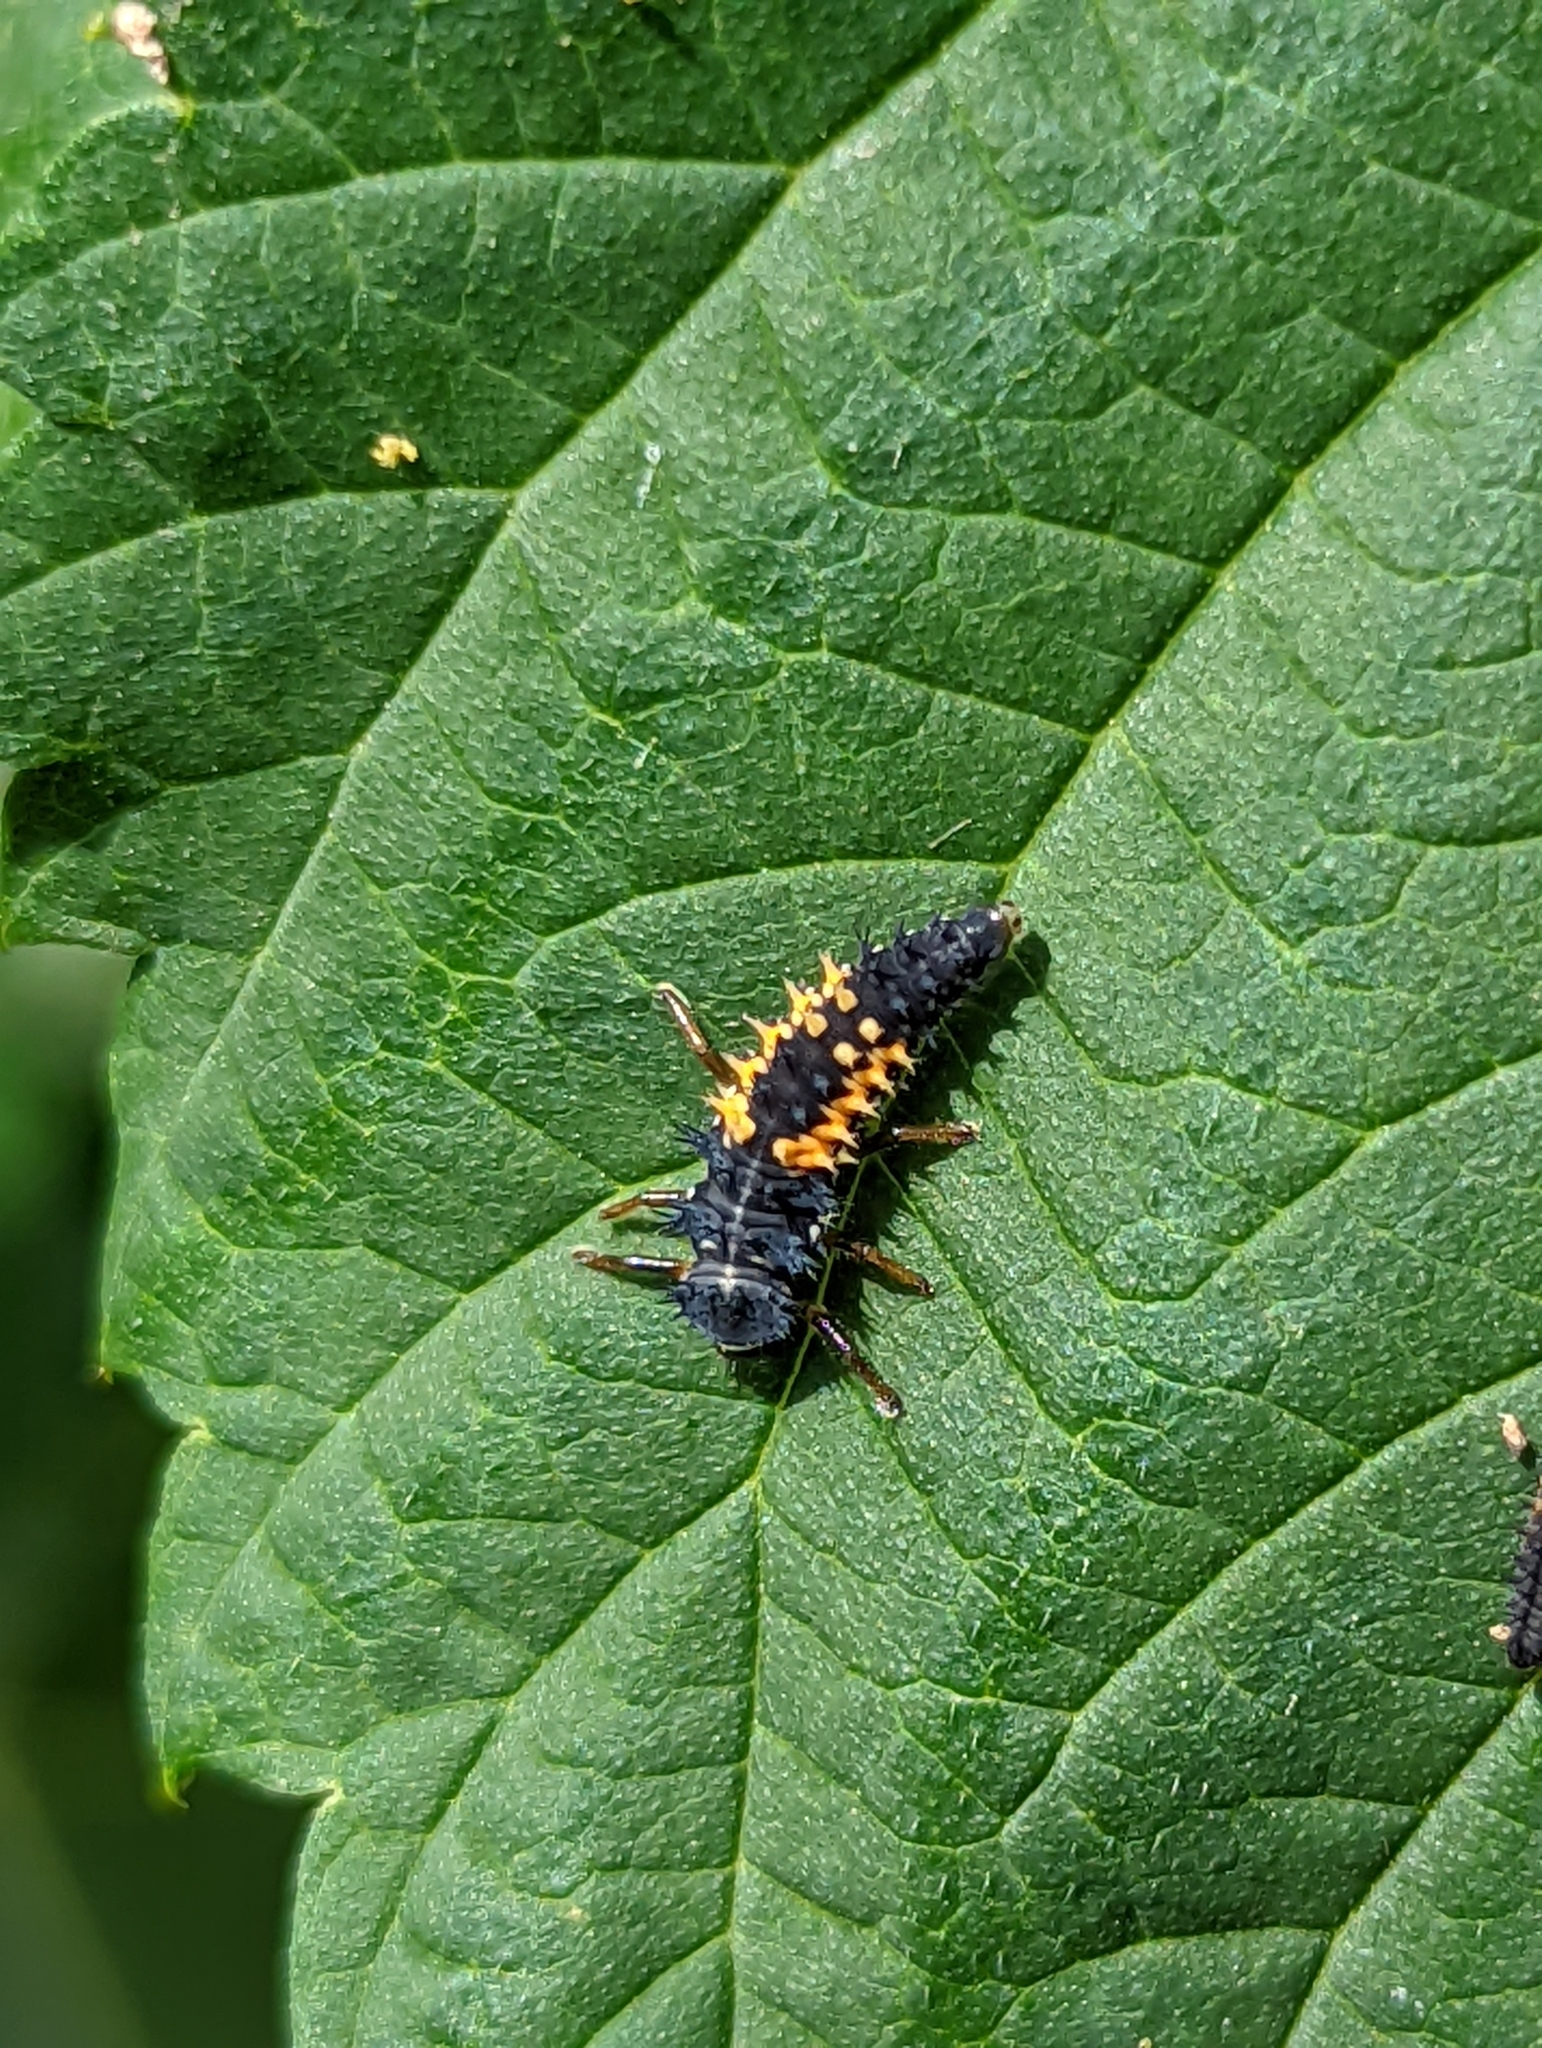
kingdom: Animalia
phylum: Arthropoda
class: Insecta
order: Coleoptera
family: Coccinellidae
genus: Harmonia
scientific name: Harmonia axyridis
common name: Harlequin ladybird
